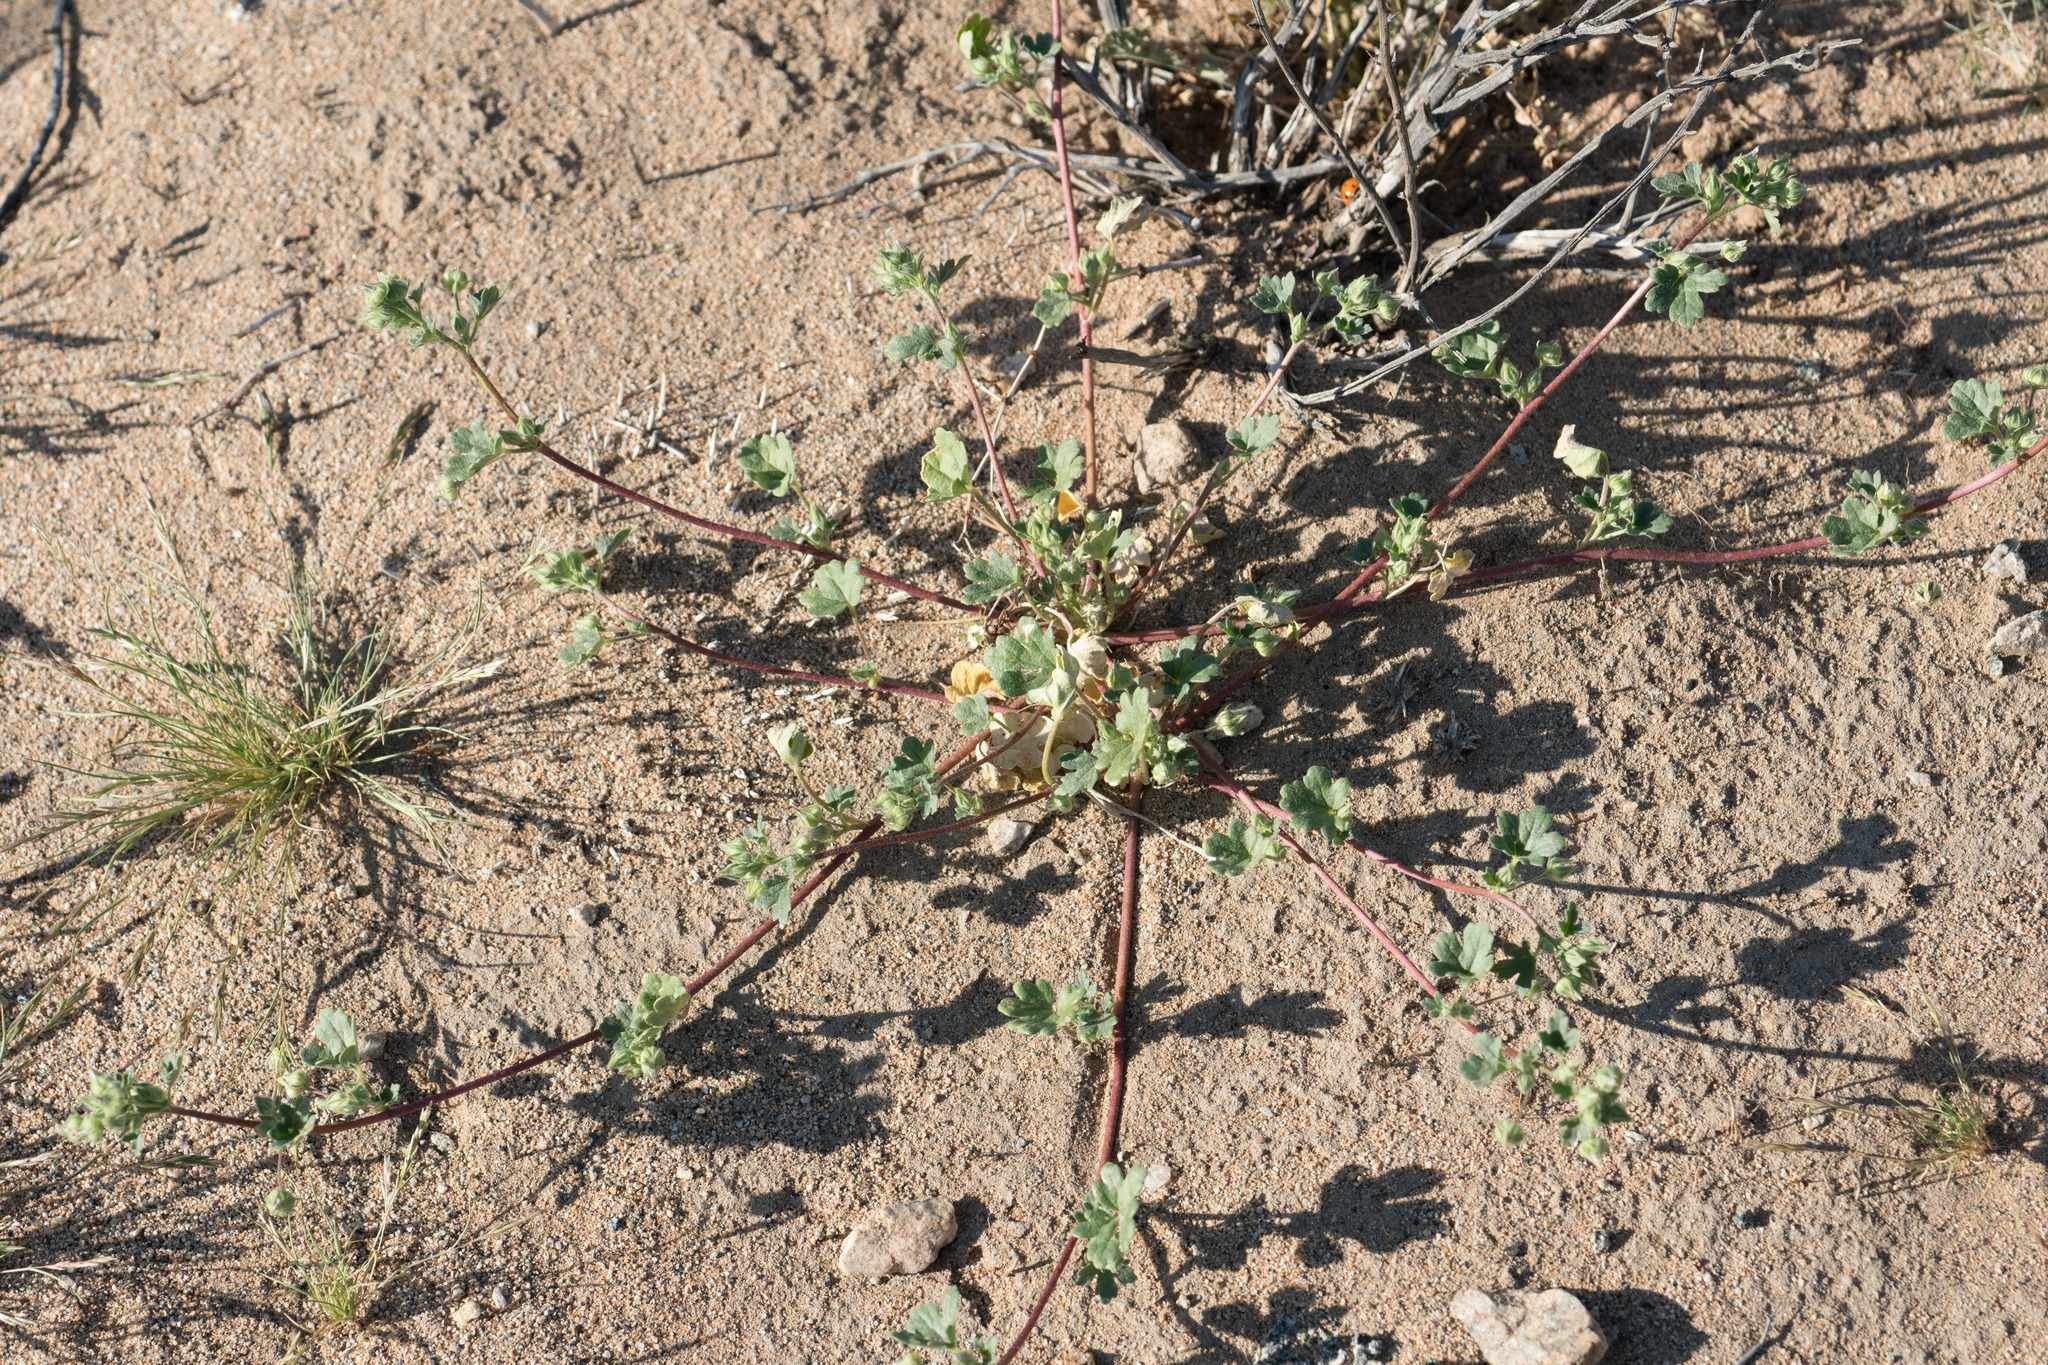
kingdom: Plantae
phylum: Tracheophyta
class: Magnoliopsida
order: Malvales
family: Malvaceae
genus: Eremalche
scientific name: Eremalche exilis
